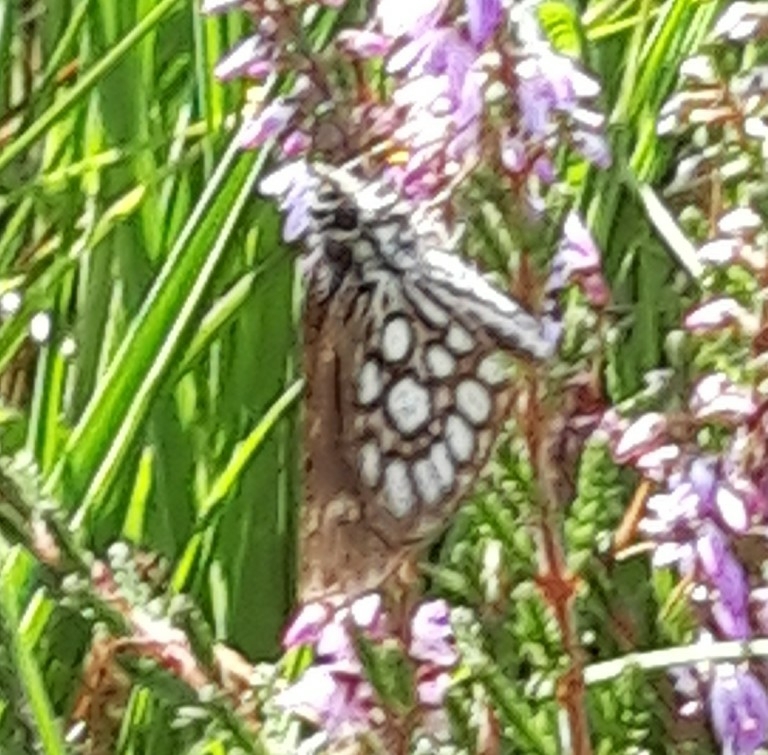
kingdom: Animalia
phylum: Arthropoda
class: Insecta
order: Lepidoptera
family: Hesperiidae
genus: Heteropterus
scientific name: Heteropterus morpheus
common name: Large chequered skipper
